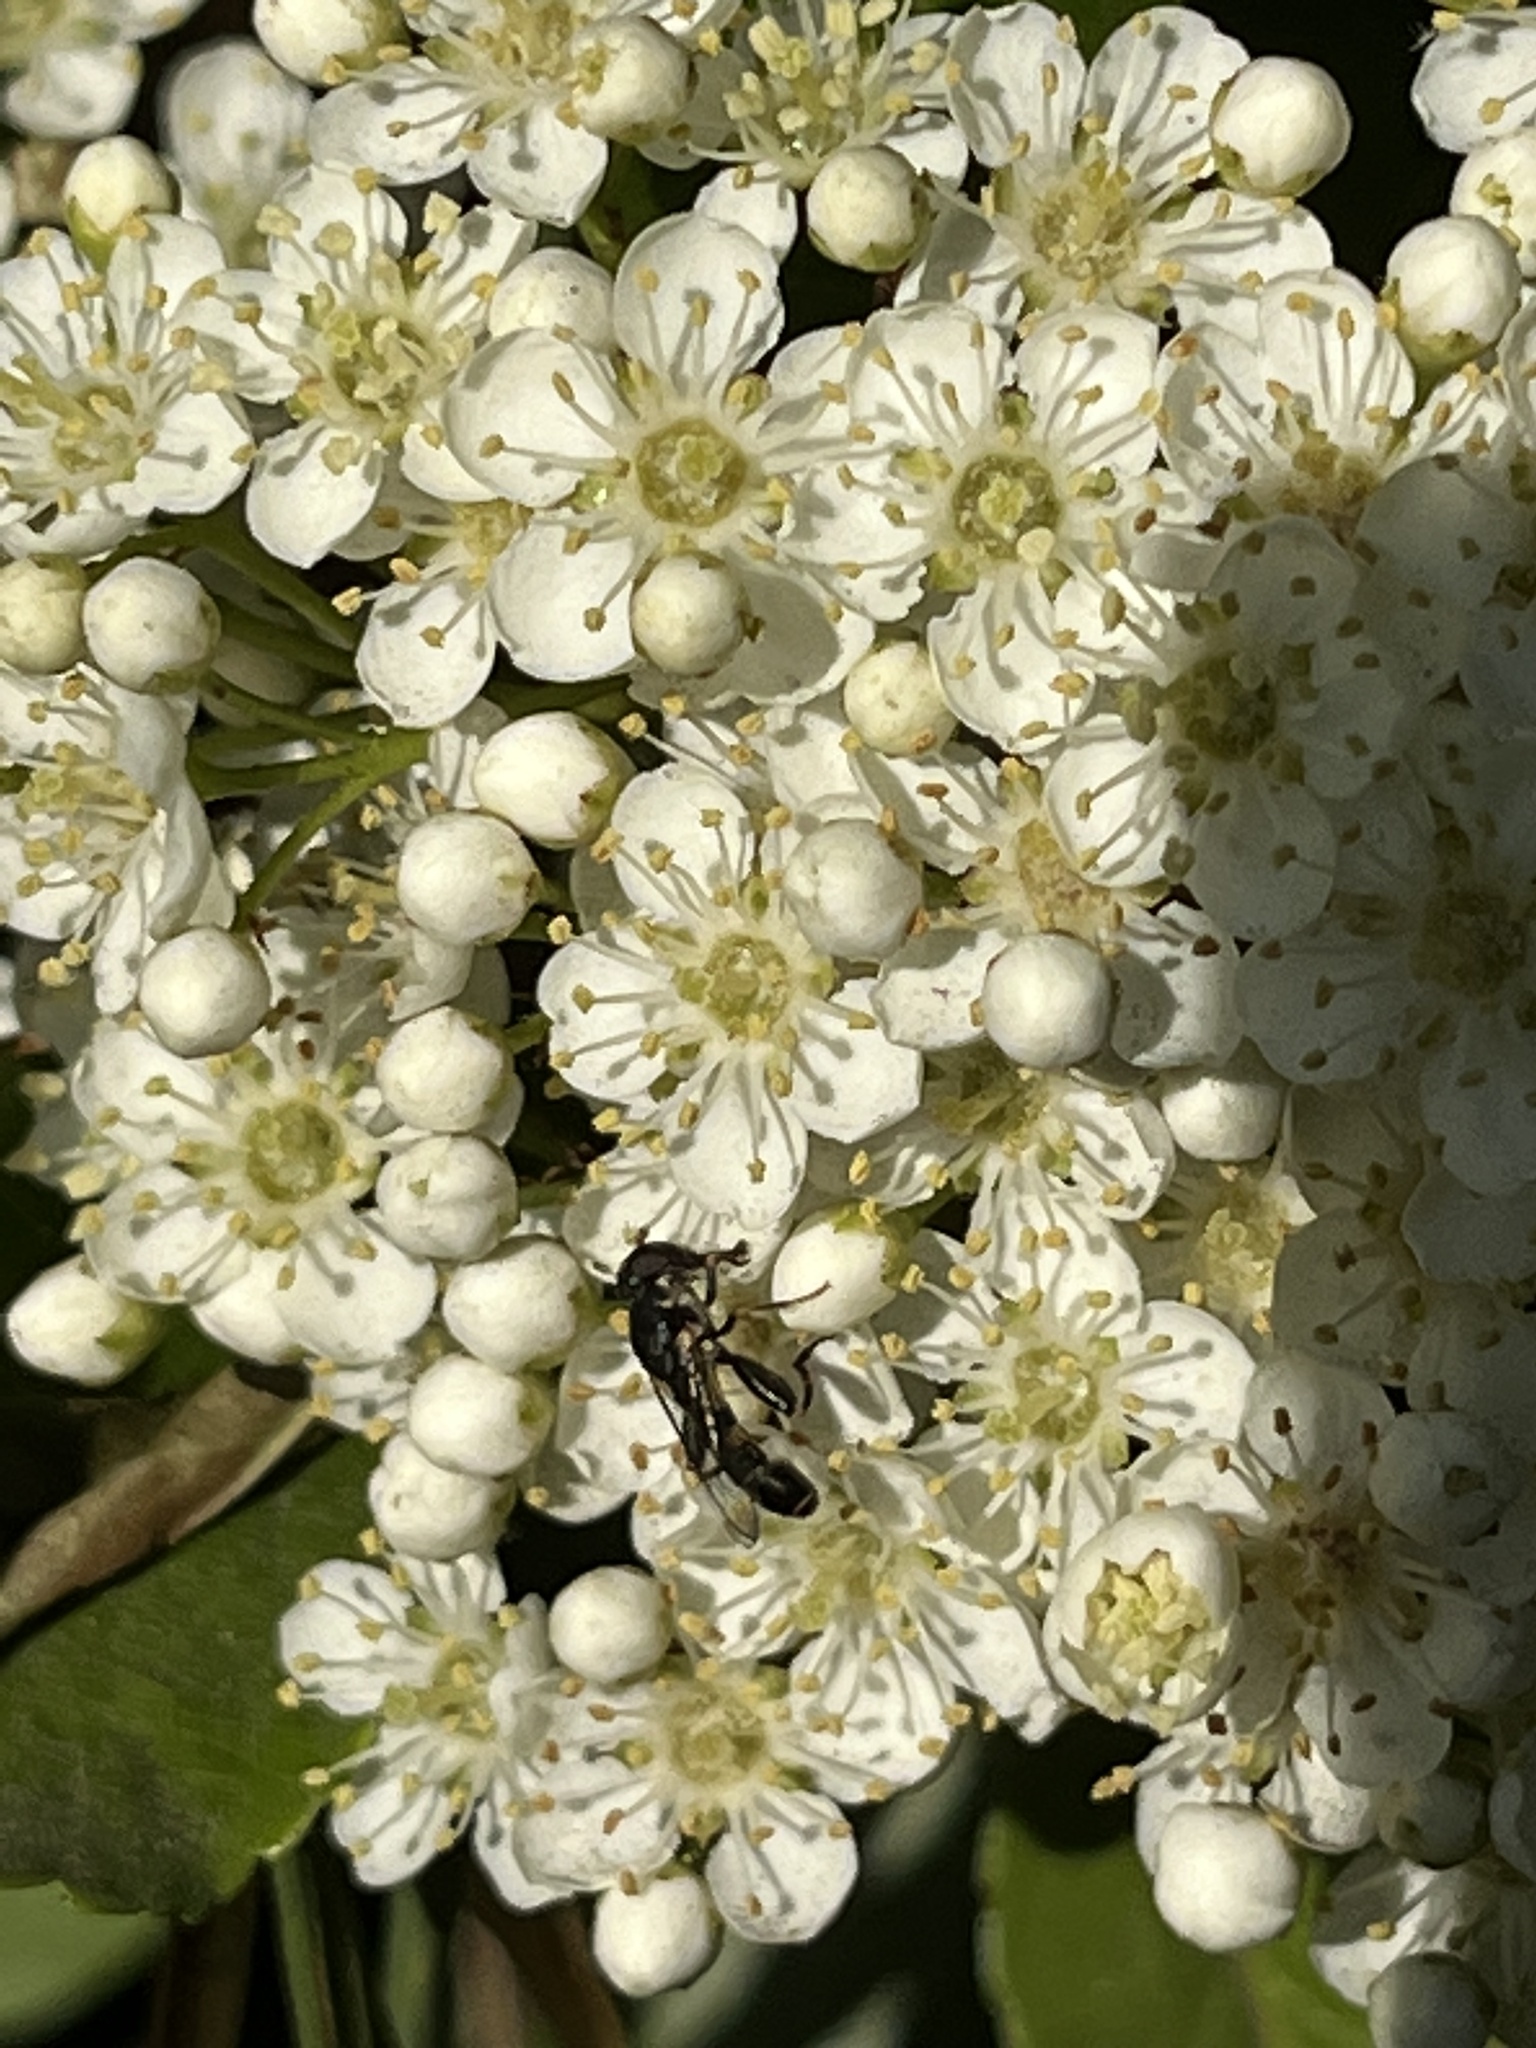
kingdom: Animalia
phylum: Arthropoda
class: Insecta
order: Diptera
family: Syrphidae
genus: Syritta
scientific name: Syritta pipiens
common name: Hover fly
